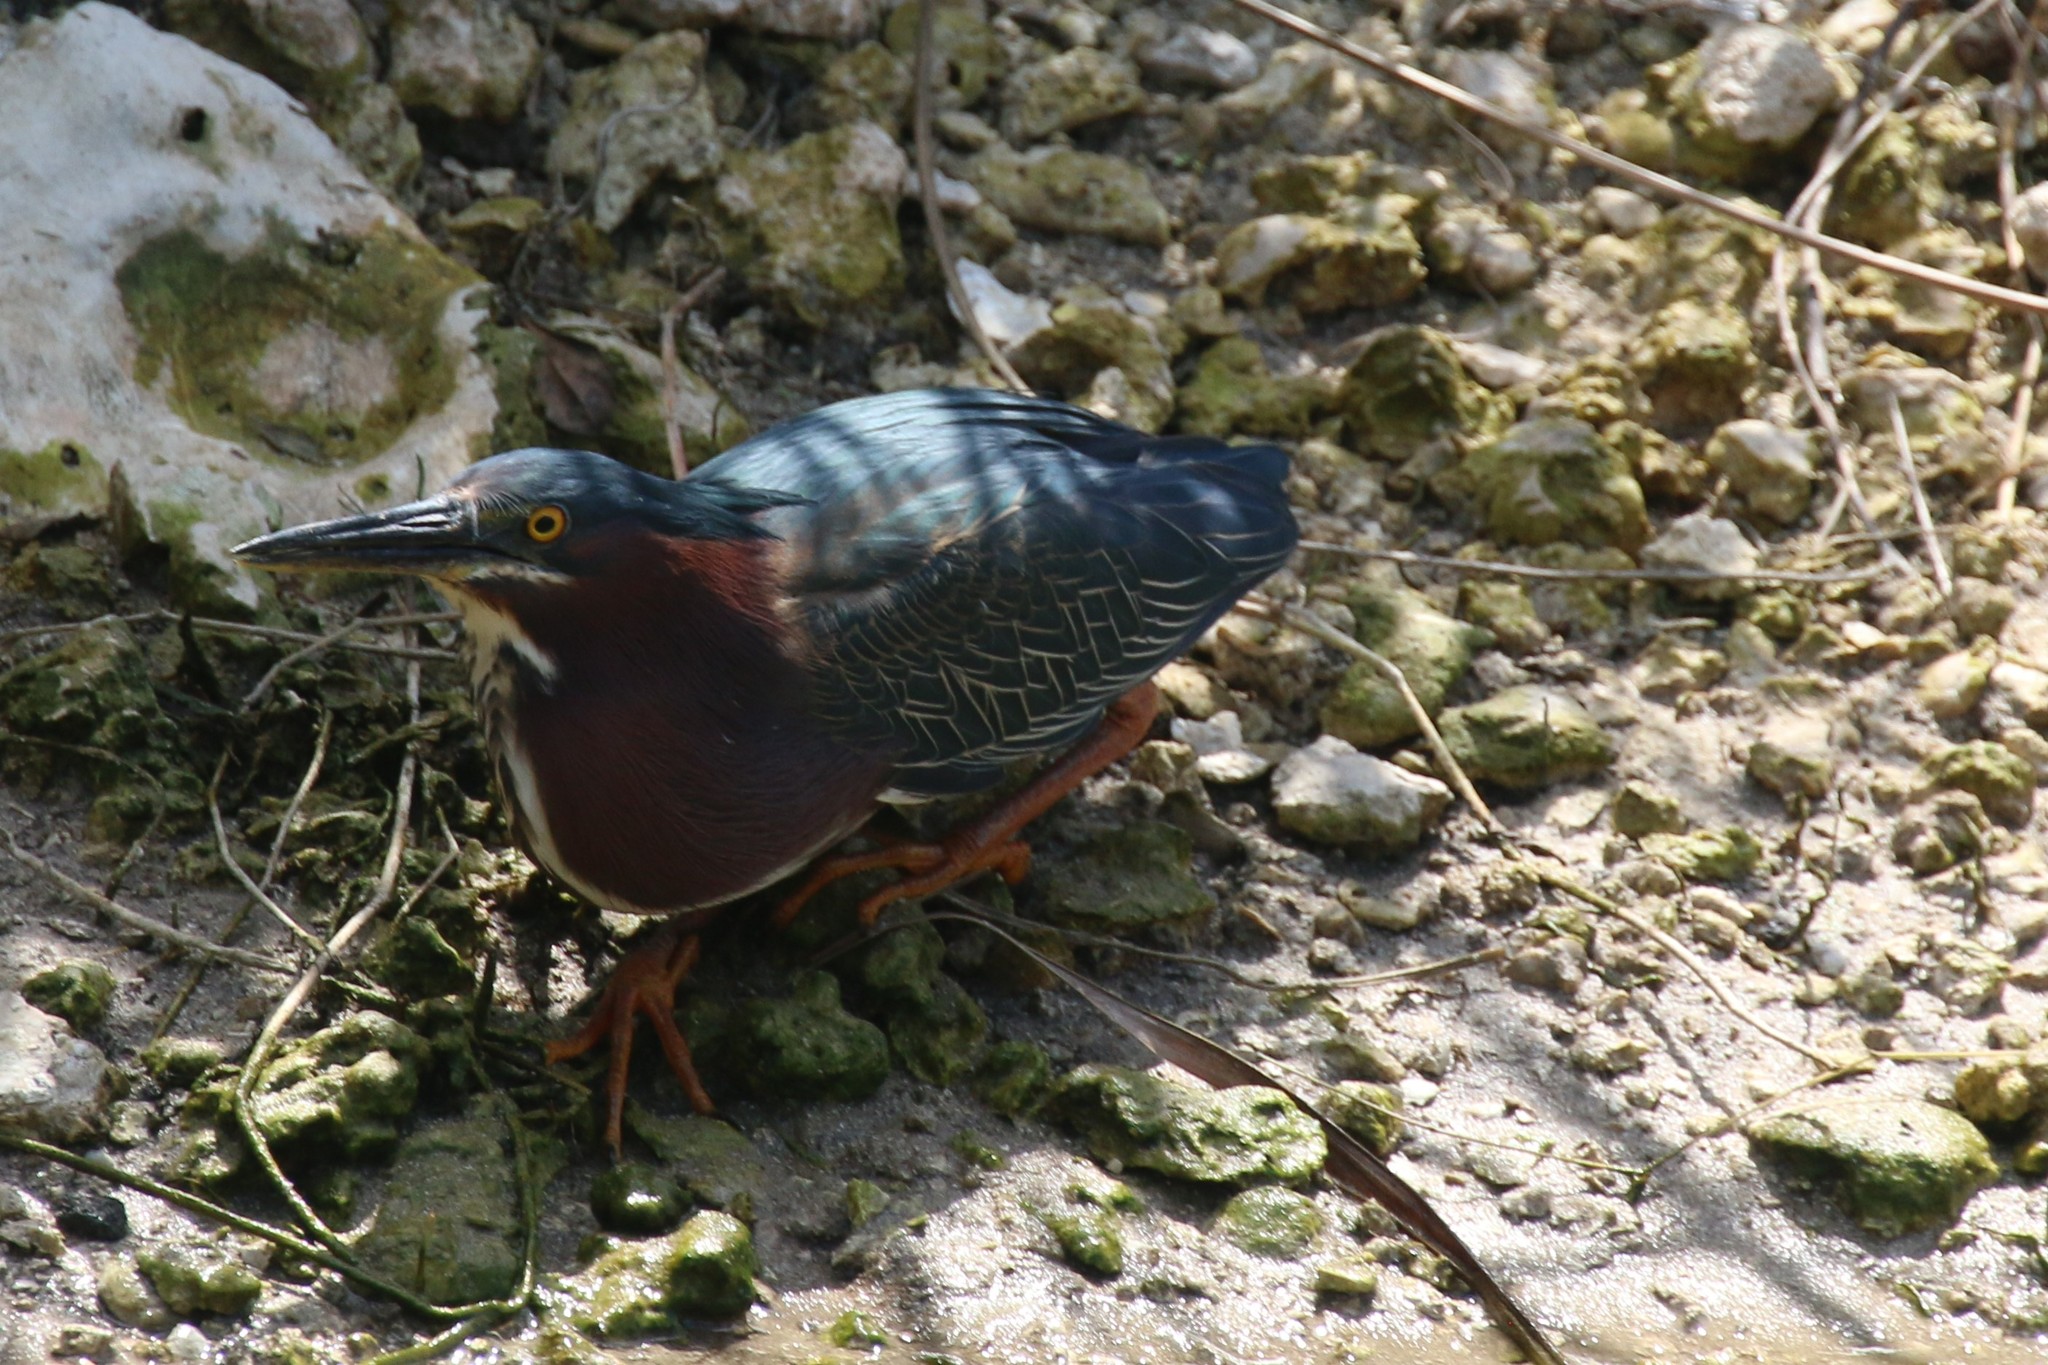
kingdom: Animalia
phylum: Chordata
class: Aves
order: Pelecaniformes
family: Ardeidae
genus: Butorides
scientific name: Butorides virescens
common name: Green heron
